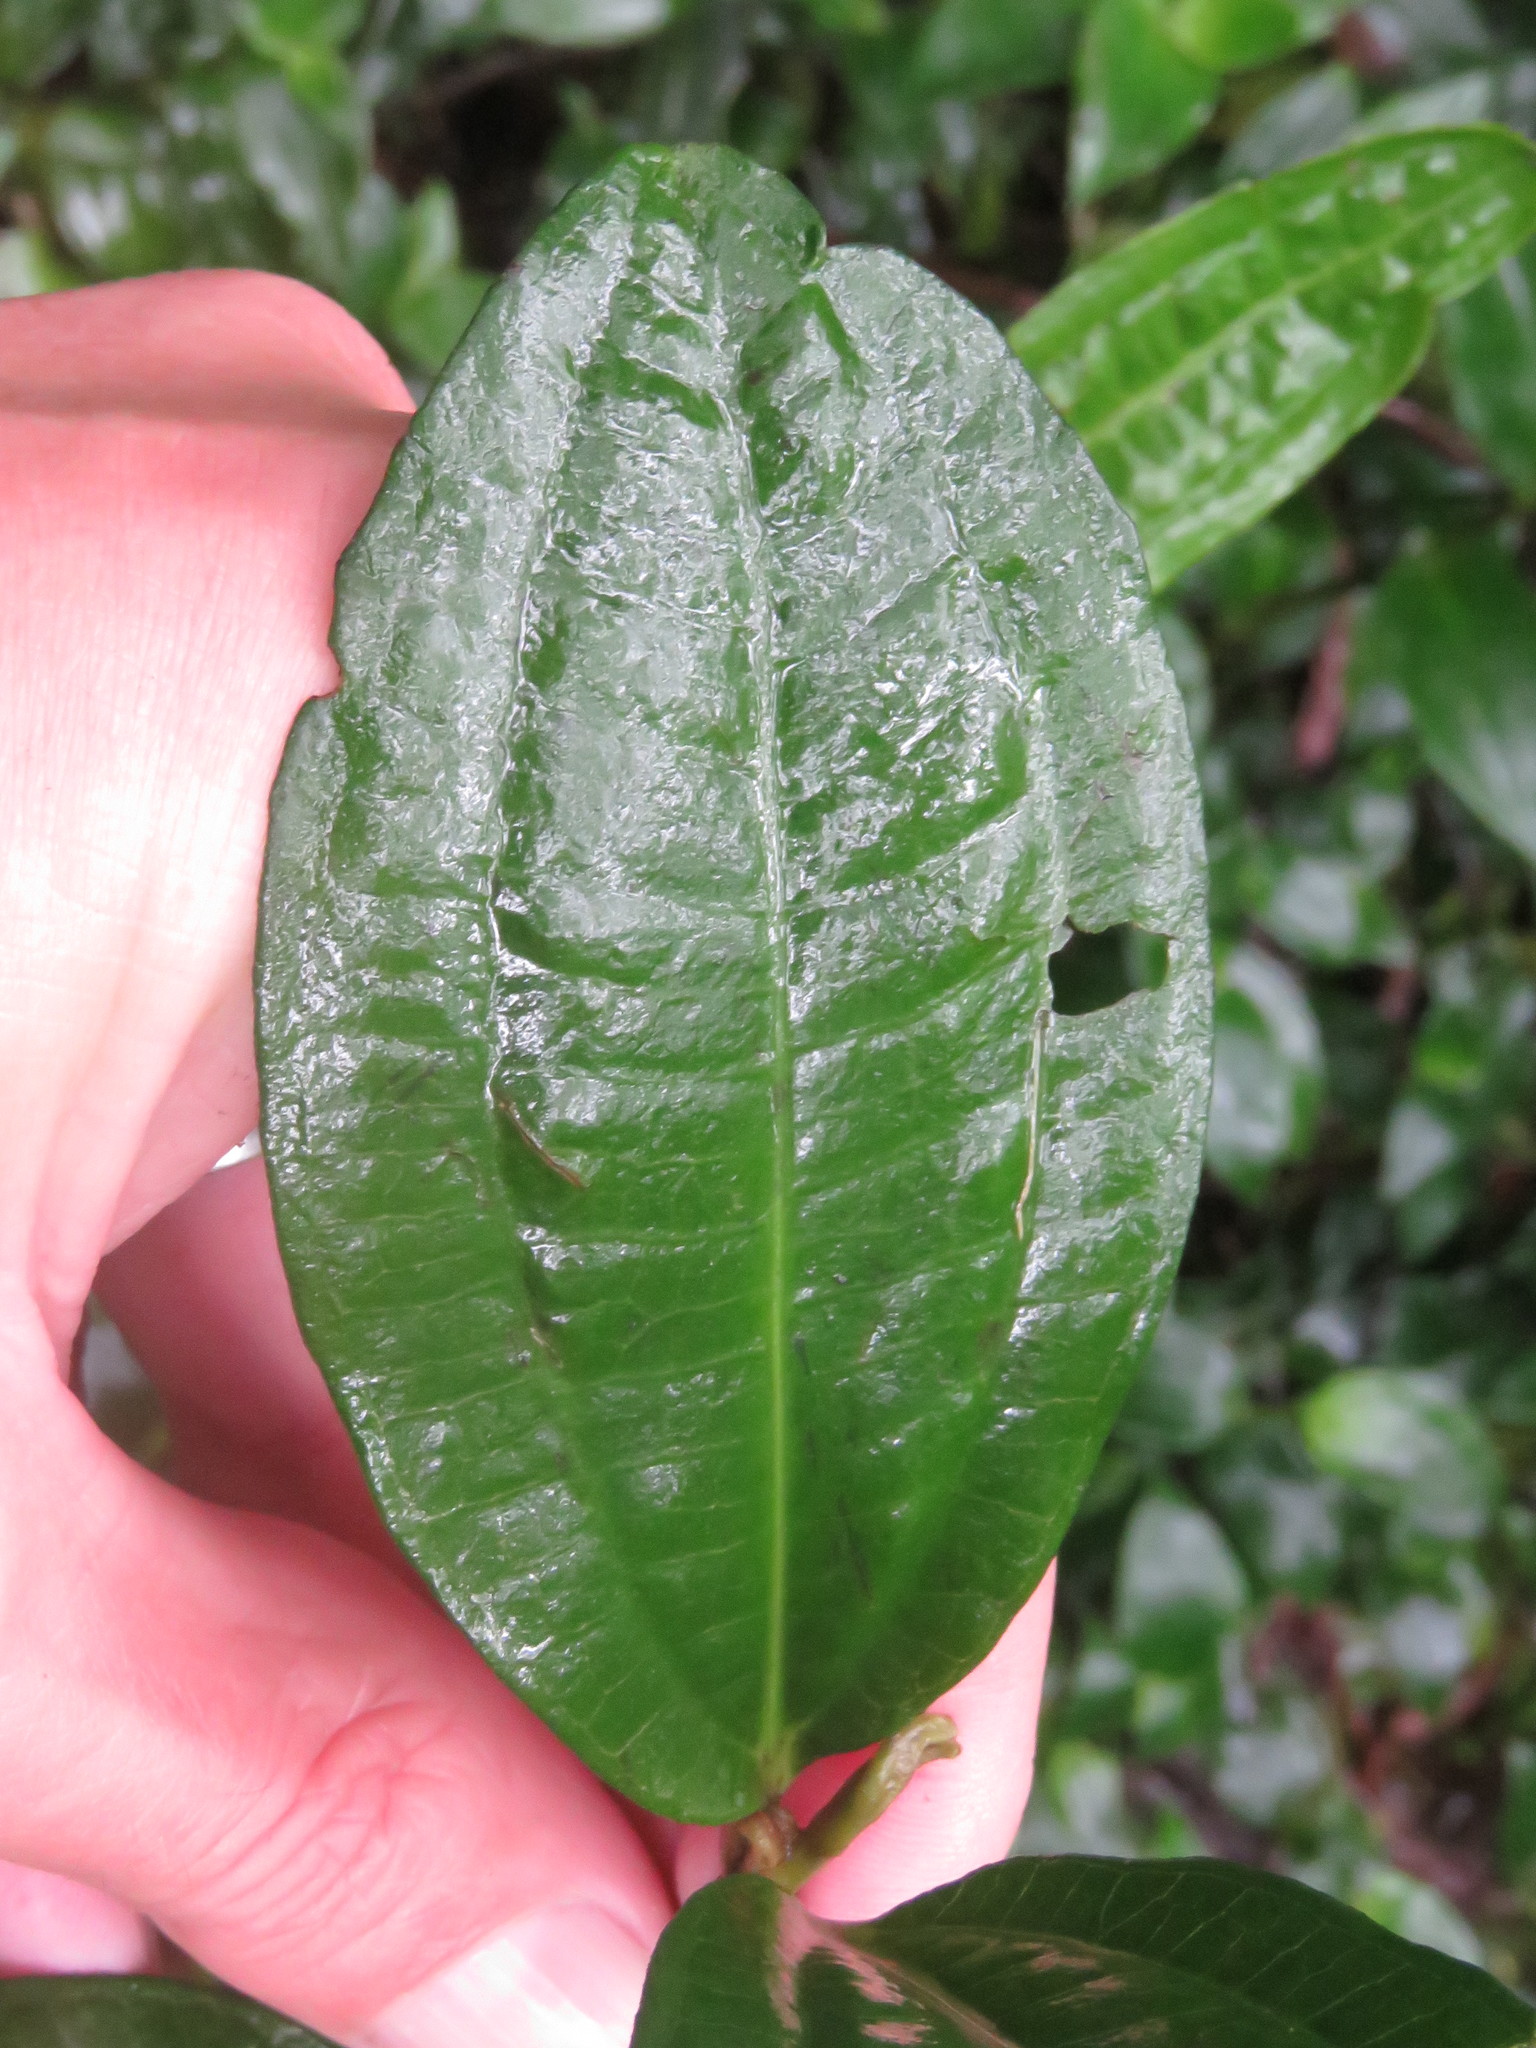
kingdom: Plantae
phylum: Tracheophyta
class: Magnoliopsida
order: Myrtales
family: Melastomataceae
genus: Miconia
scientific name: Miconia squamulosa
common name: Squamulose maya
